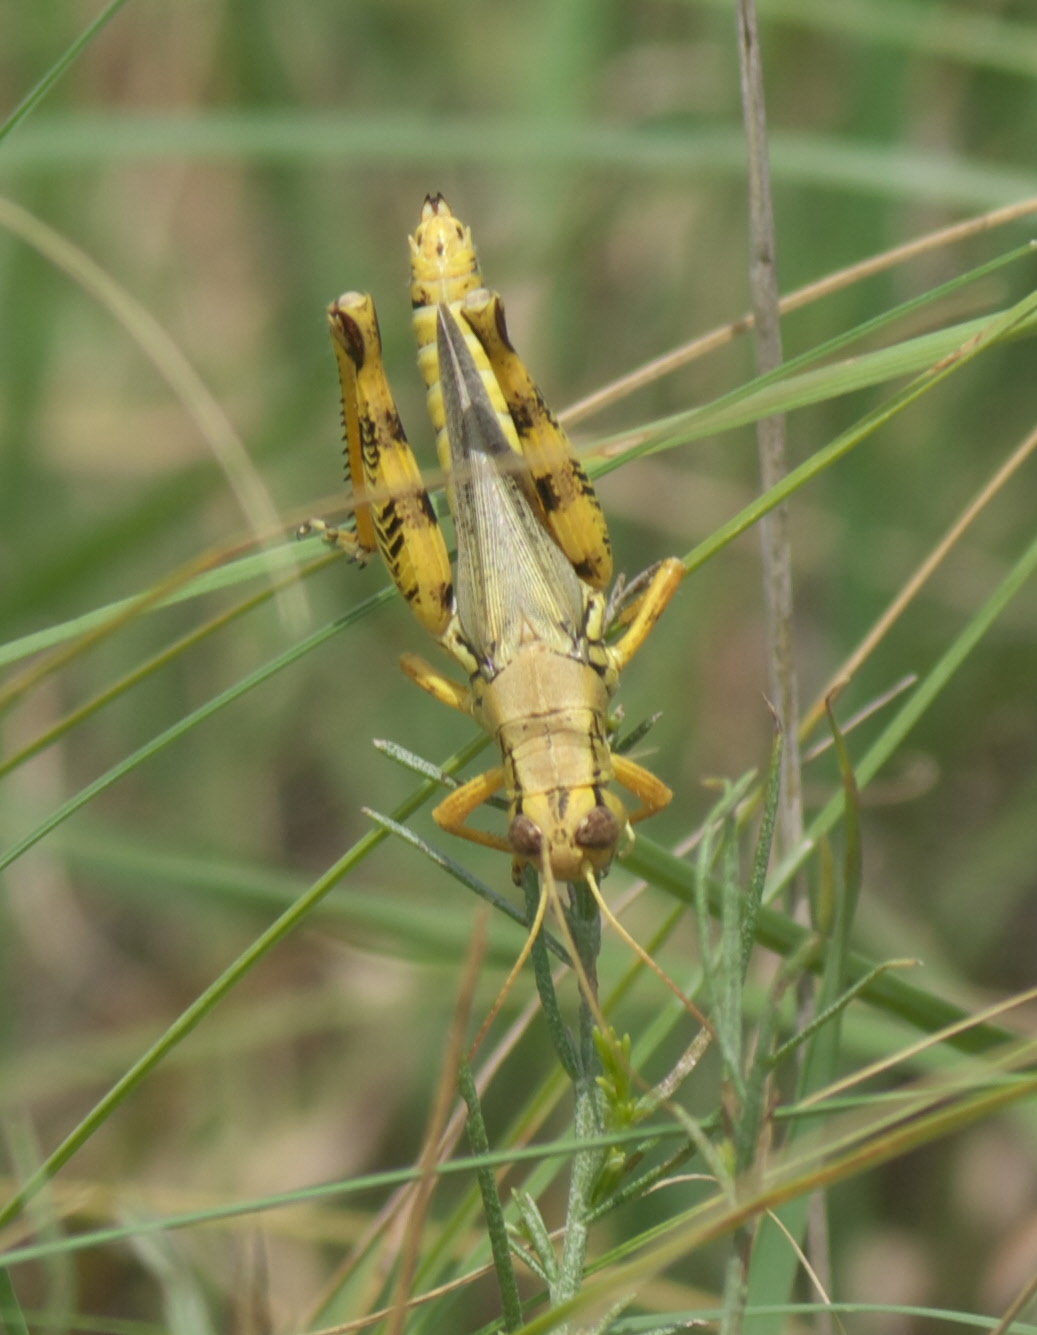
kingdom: Animalia
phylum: Arthropoda
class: Insecta
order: Orthoptera
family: Acrididae
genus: Melanoplus
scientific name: Melanoplus differentialis
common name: Differential grasshopper
